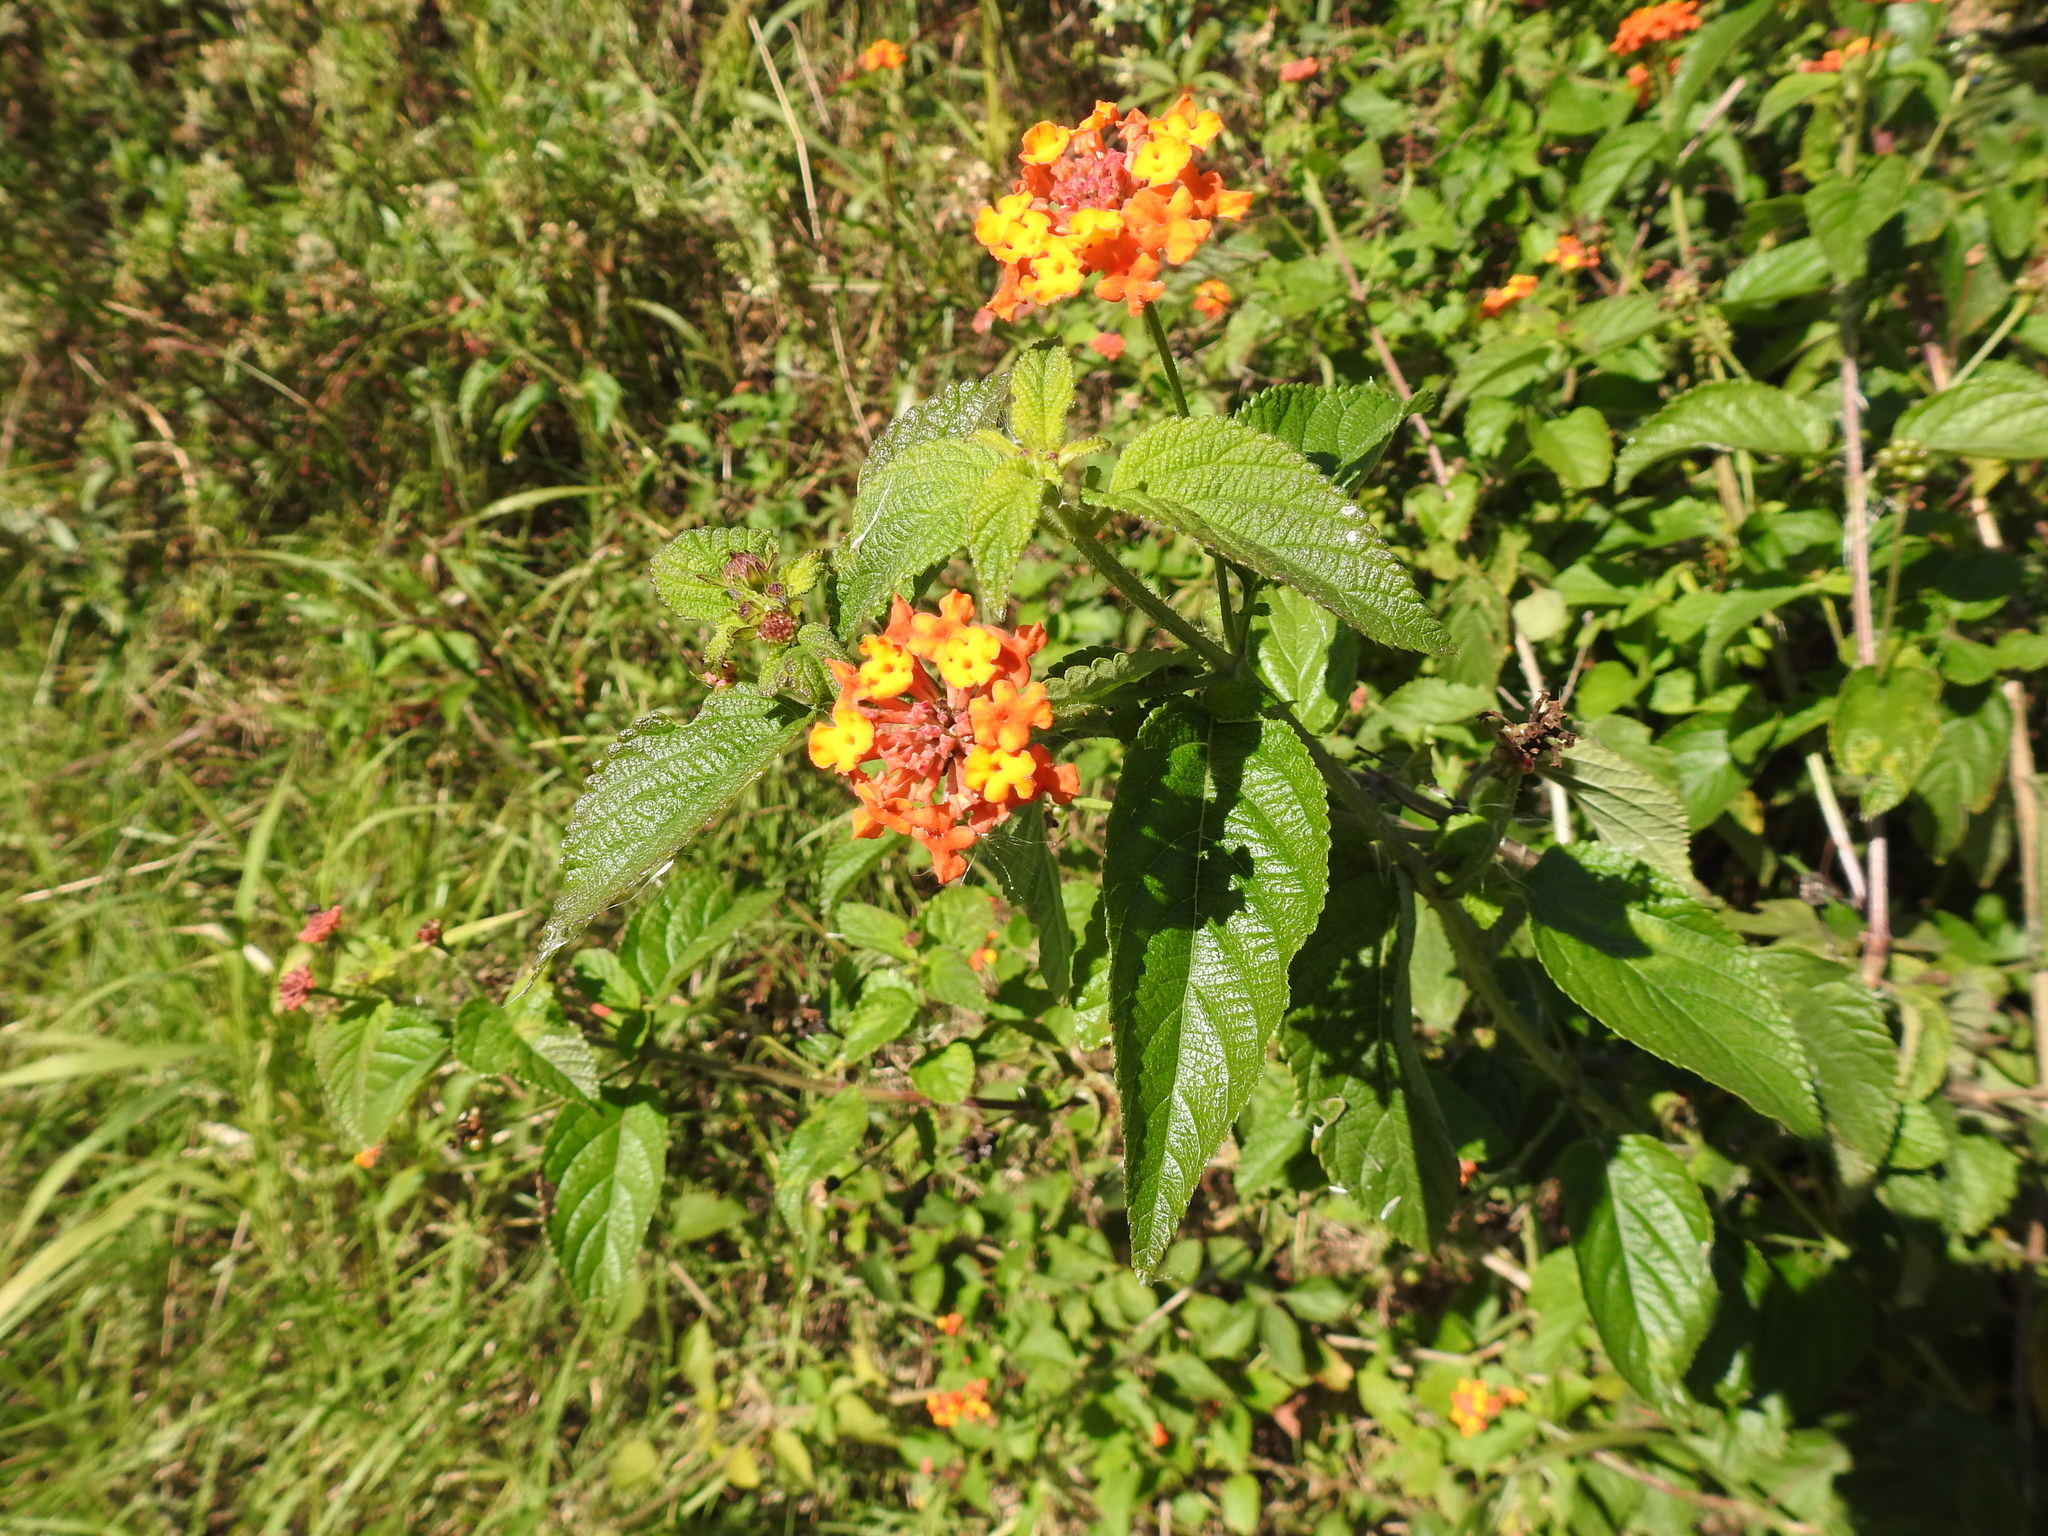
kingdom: Plantae
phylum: Tracheophyta
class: Magnoliopsida
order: Lamiales
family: Verbenaceae
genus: Lantana
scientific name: Lantana camara
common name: Lantana
